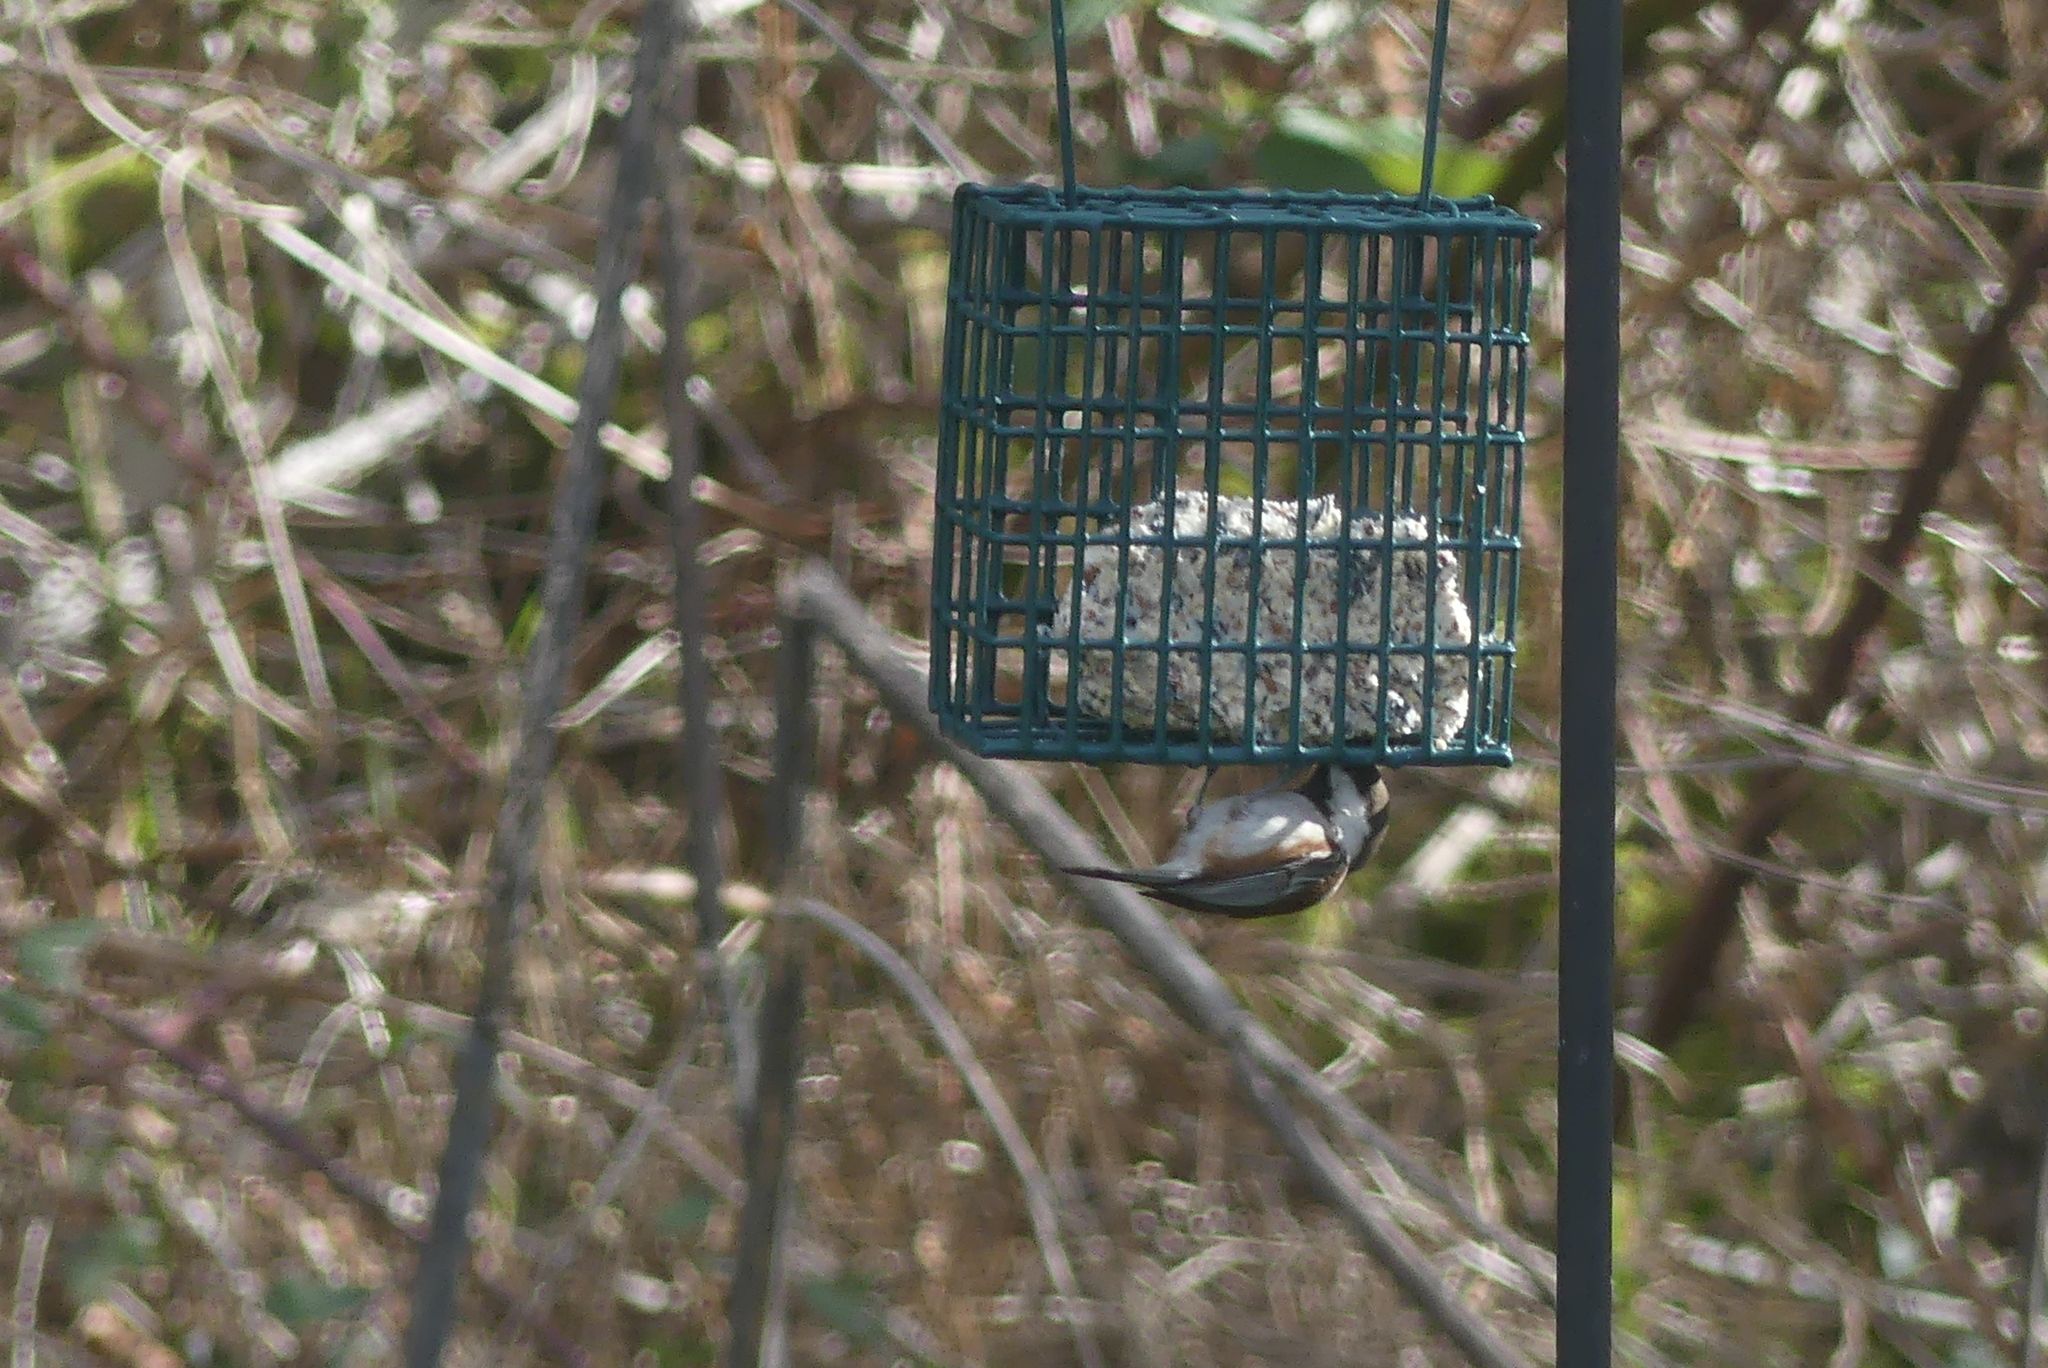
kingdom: Animalia
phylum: Chordata
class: Aves
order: Passeriformes
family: Paridae
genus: Poecile
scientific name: Poecile rufescens
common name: Chestnut-backed chickadee
